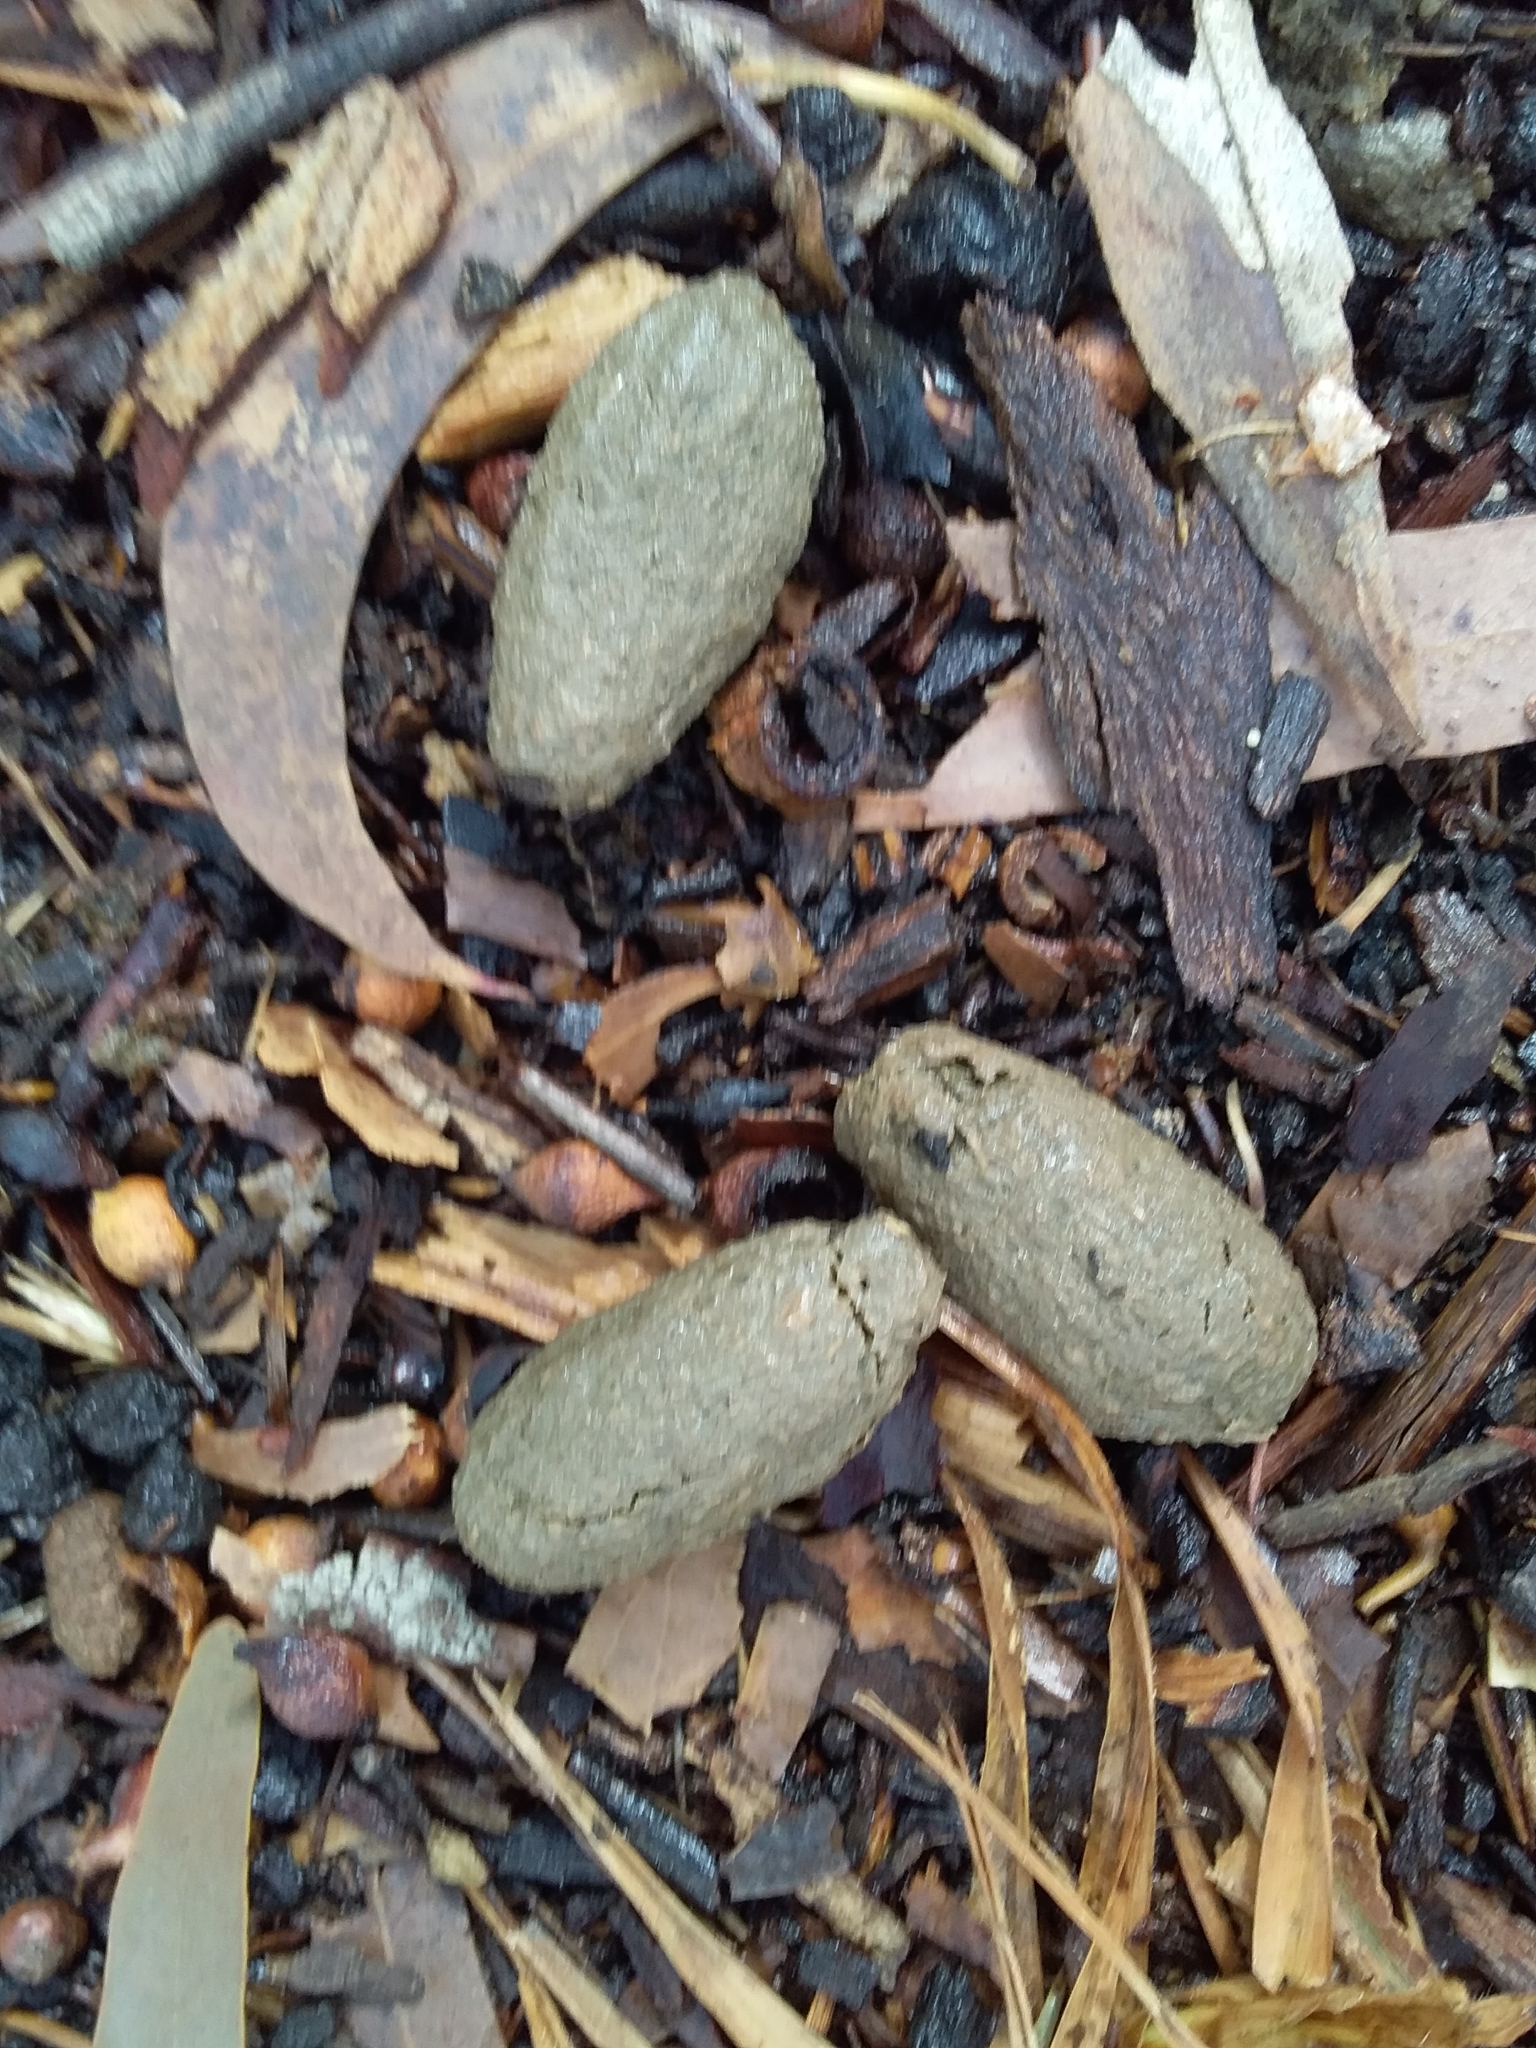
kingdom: Animalia
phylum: Chordata
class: Mammalia
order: Diprotodontia
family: Phascolarctidae
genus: Phascolarctos
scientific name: Phascolarctos cinereus
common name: Koala
